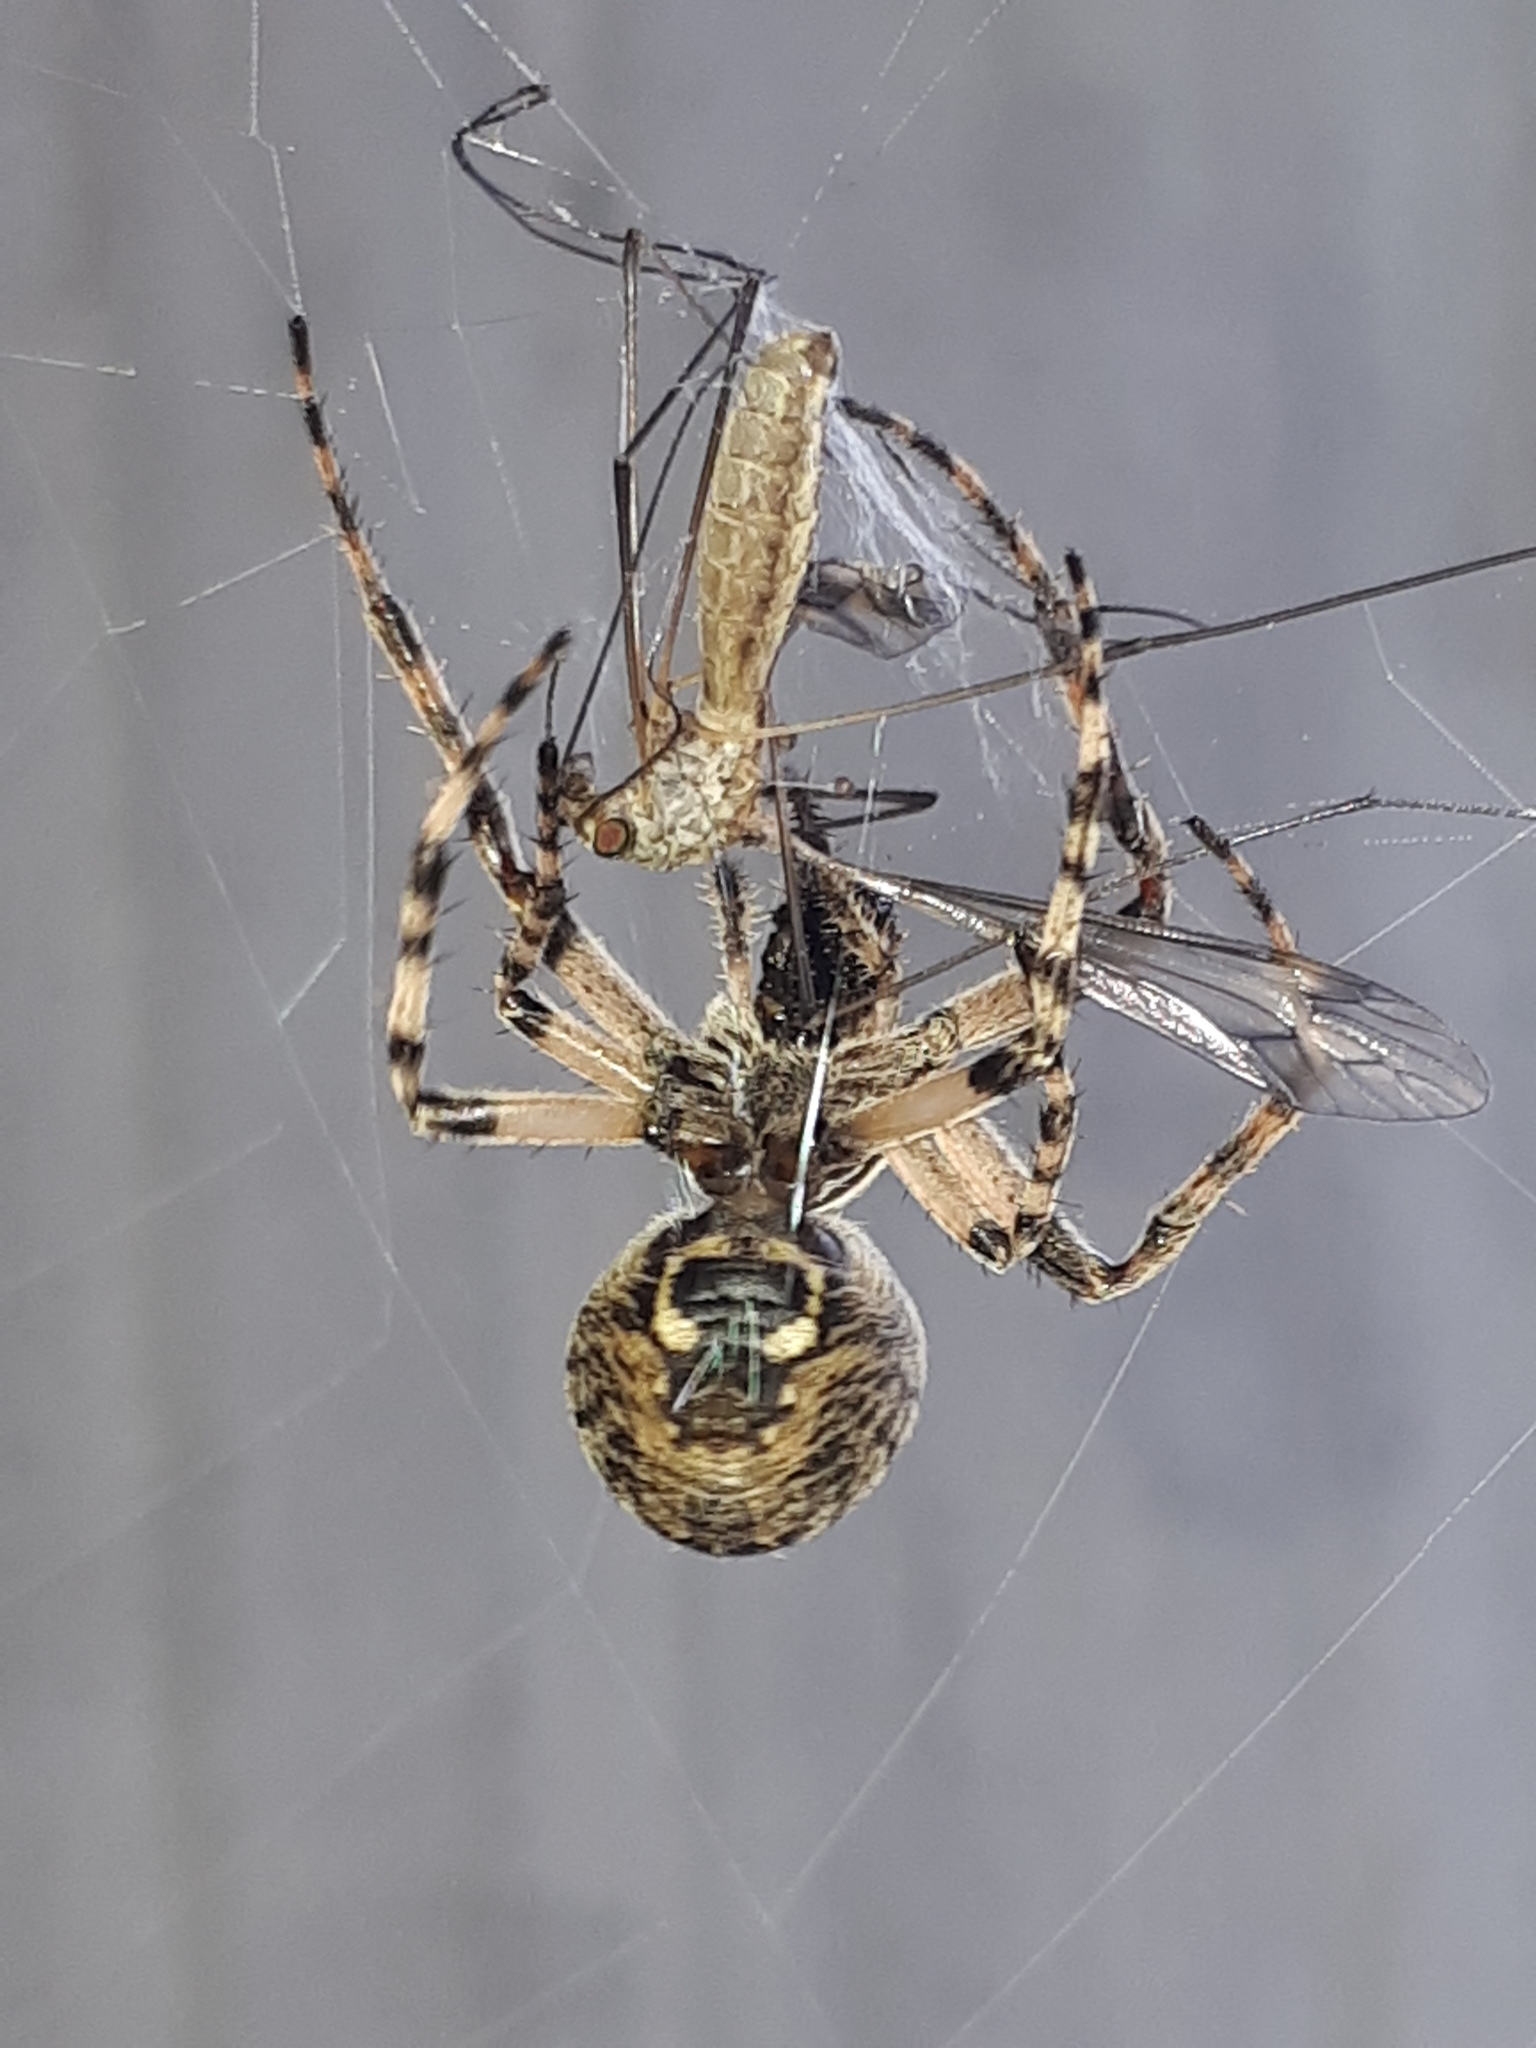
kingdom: Animalia
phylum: Arthropoda
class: Arachnida
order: Araneae
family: Araneidae
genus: Larinioides
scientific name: Larinioides sclopetarius
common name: Bridge orbweaver
